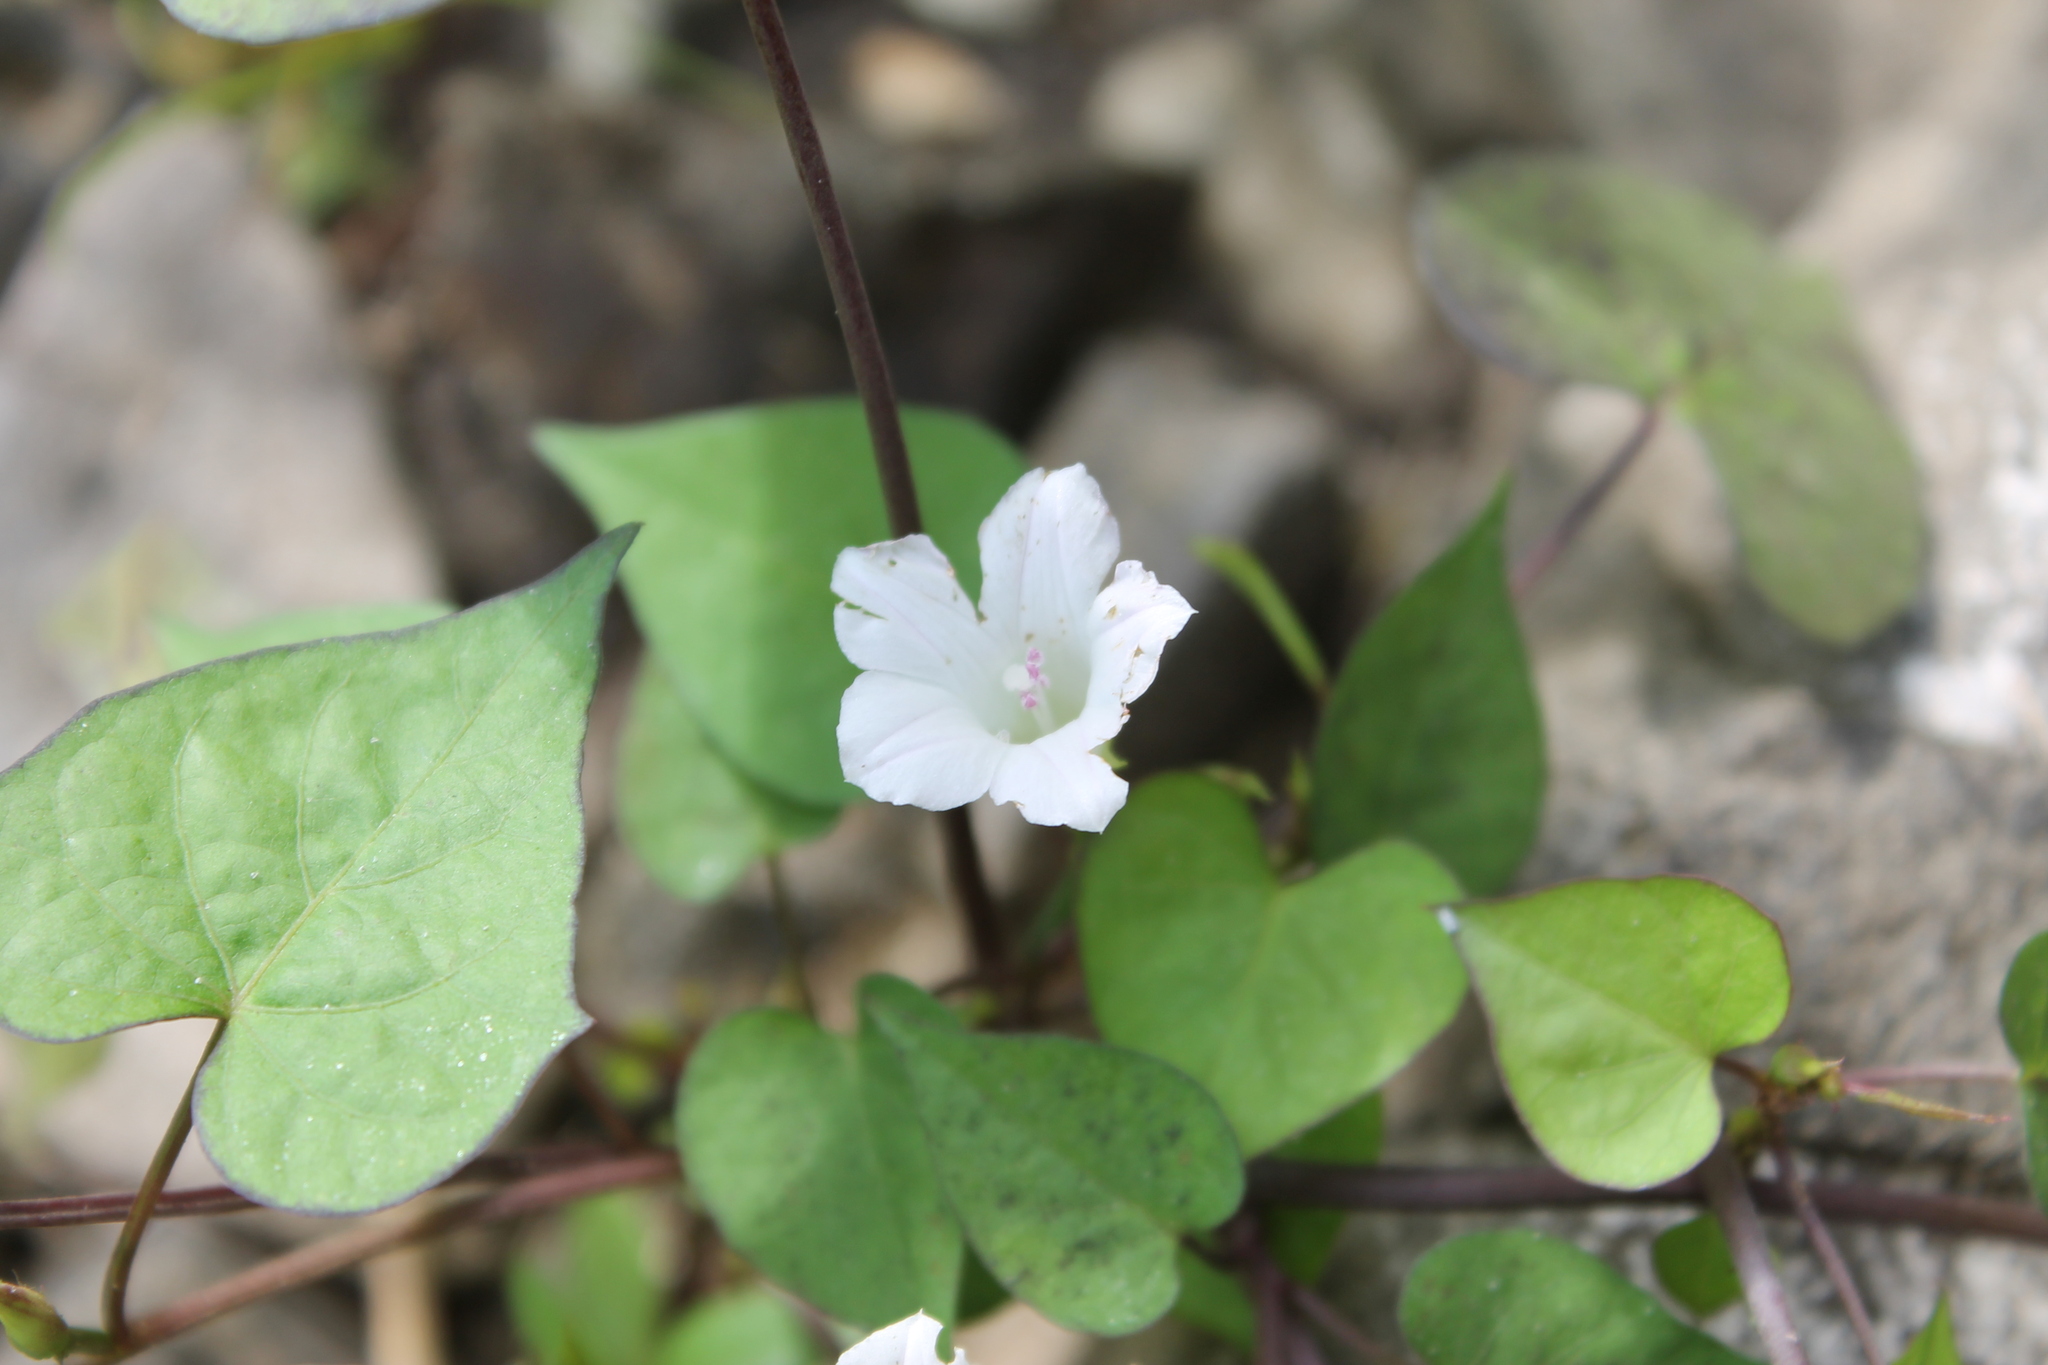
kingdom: Plantae
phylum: Tracheophyta
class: Magnoliopsida
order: Solanales
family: Convolvulaceae
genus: Ipomoea
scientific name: Ipomoea lacunosa
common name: White morning-glory
